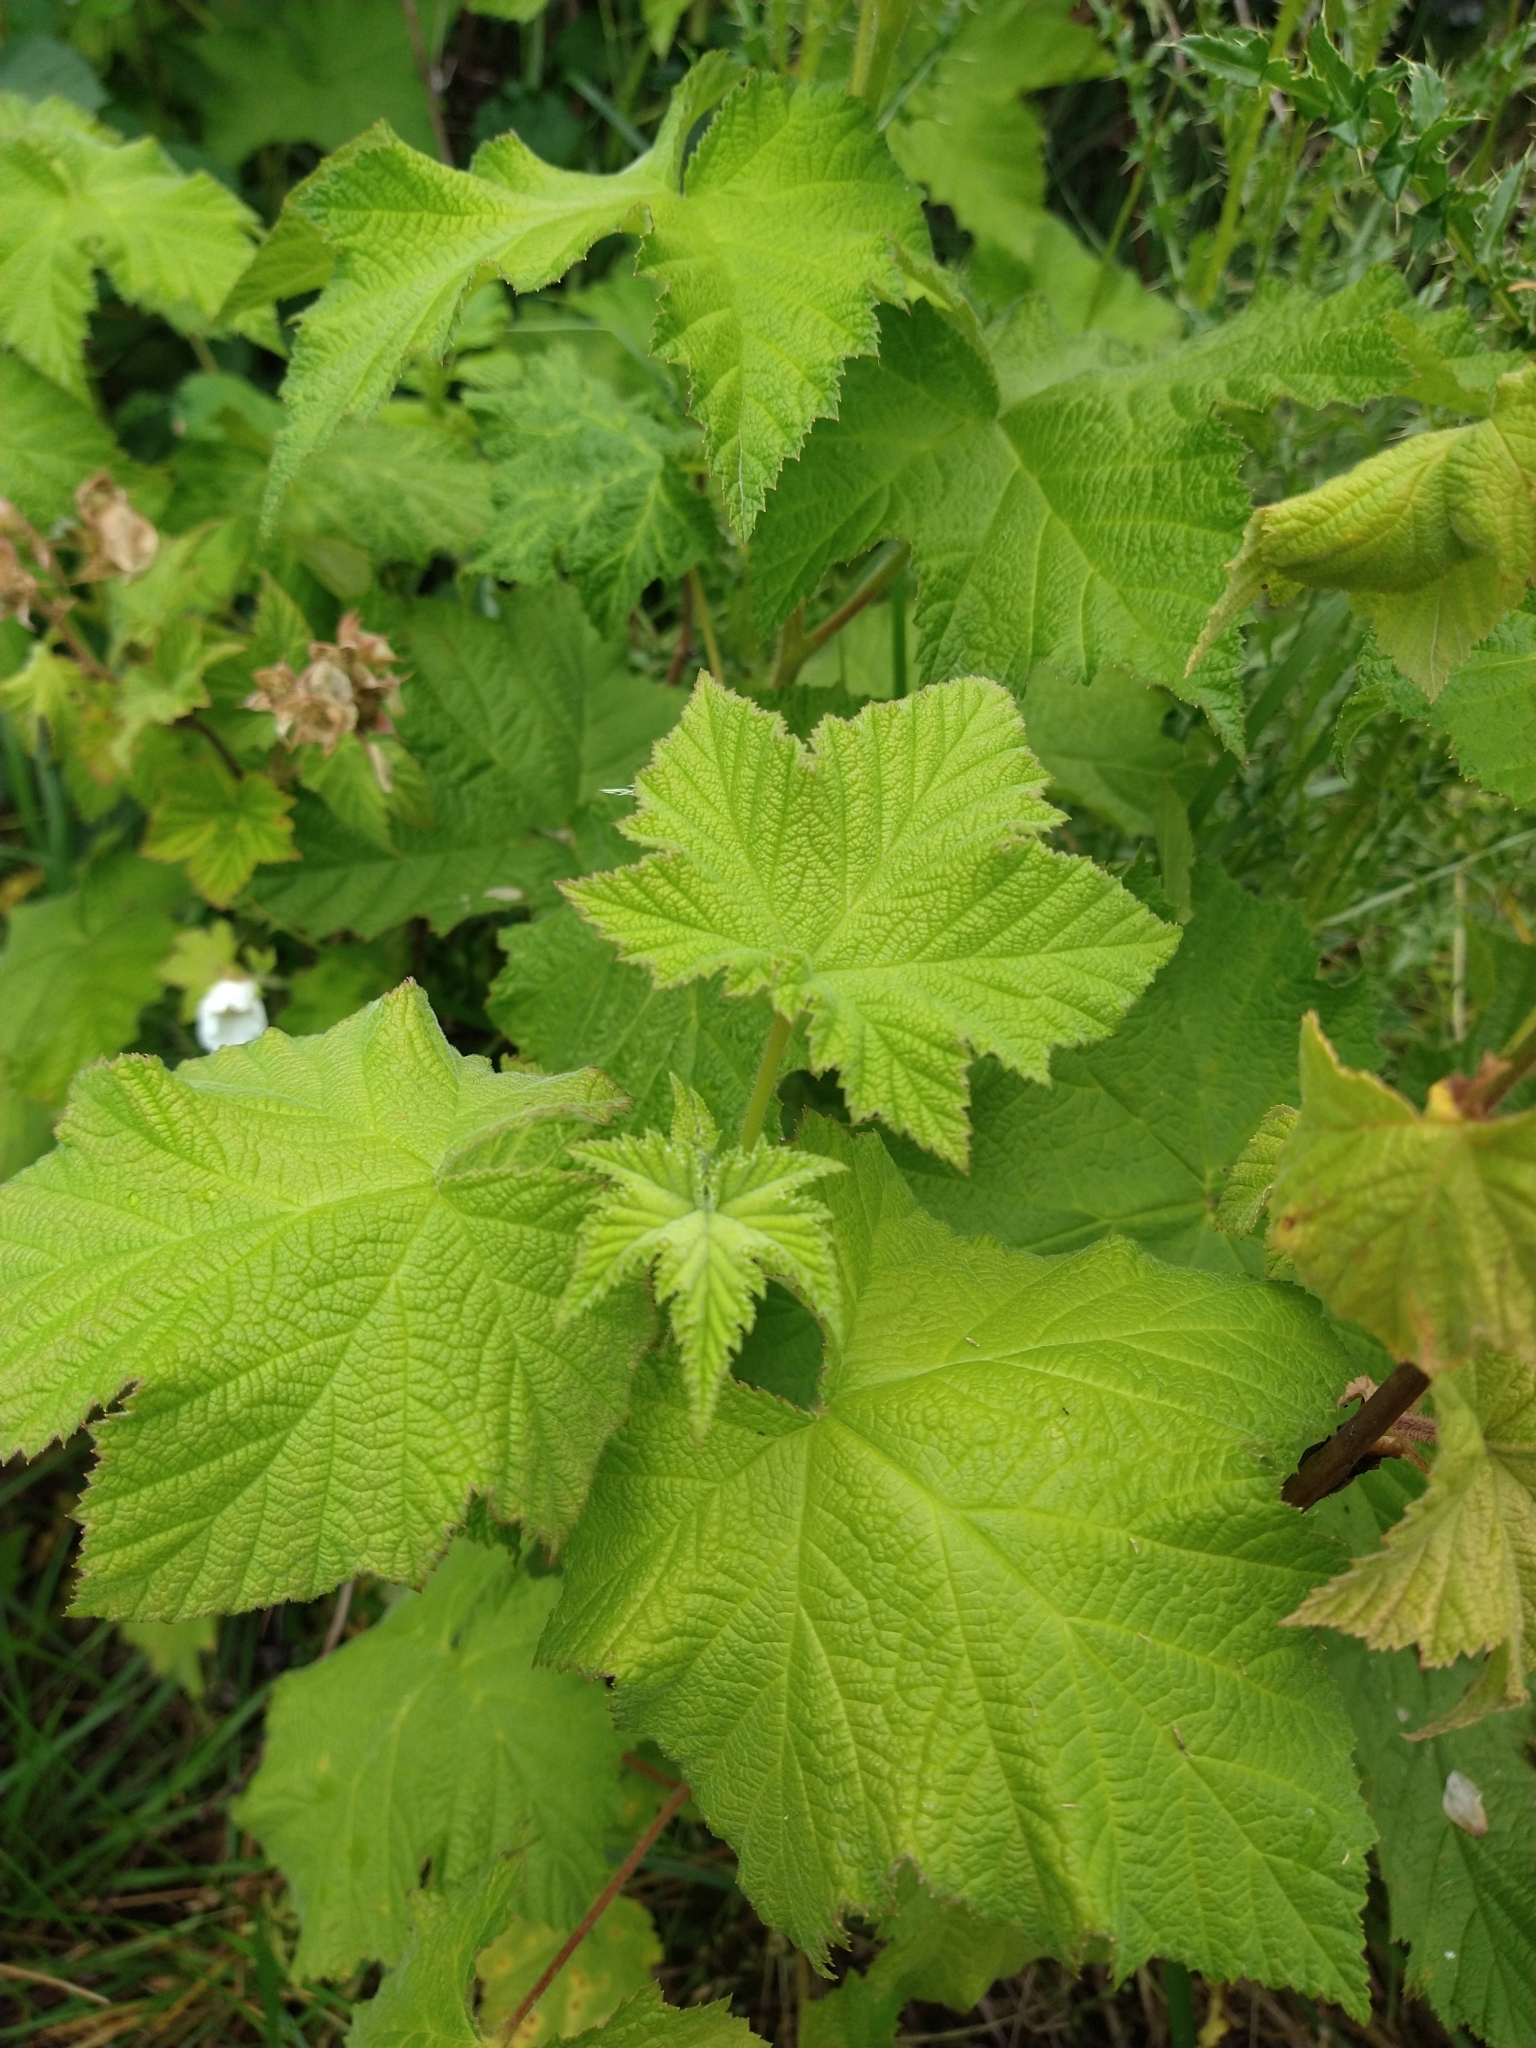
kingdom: Plantae
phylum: Tracheophyta
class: Magnoliopsida
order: Rosales
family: Rosaceae
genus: Rubus
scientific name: Rubus parviflorus
